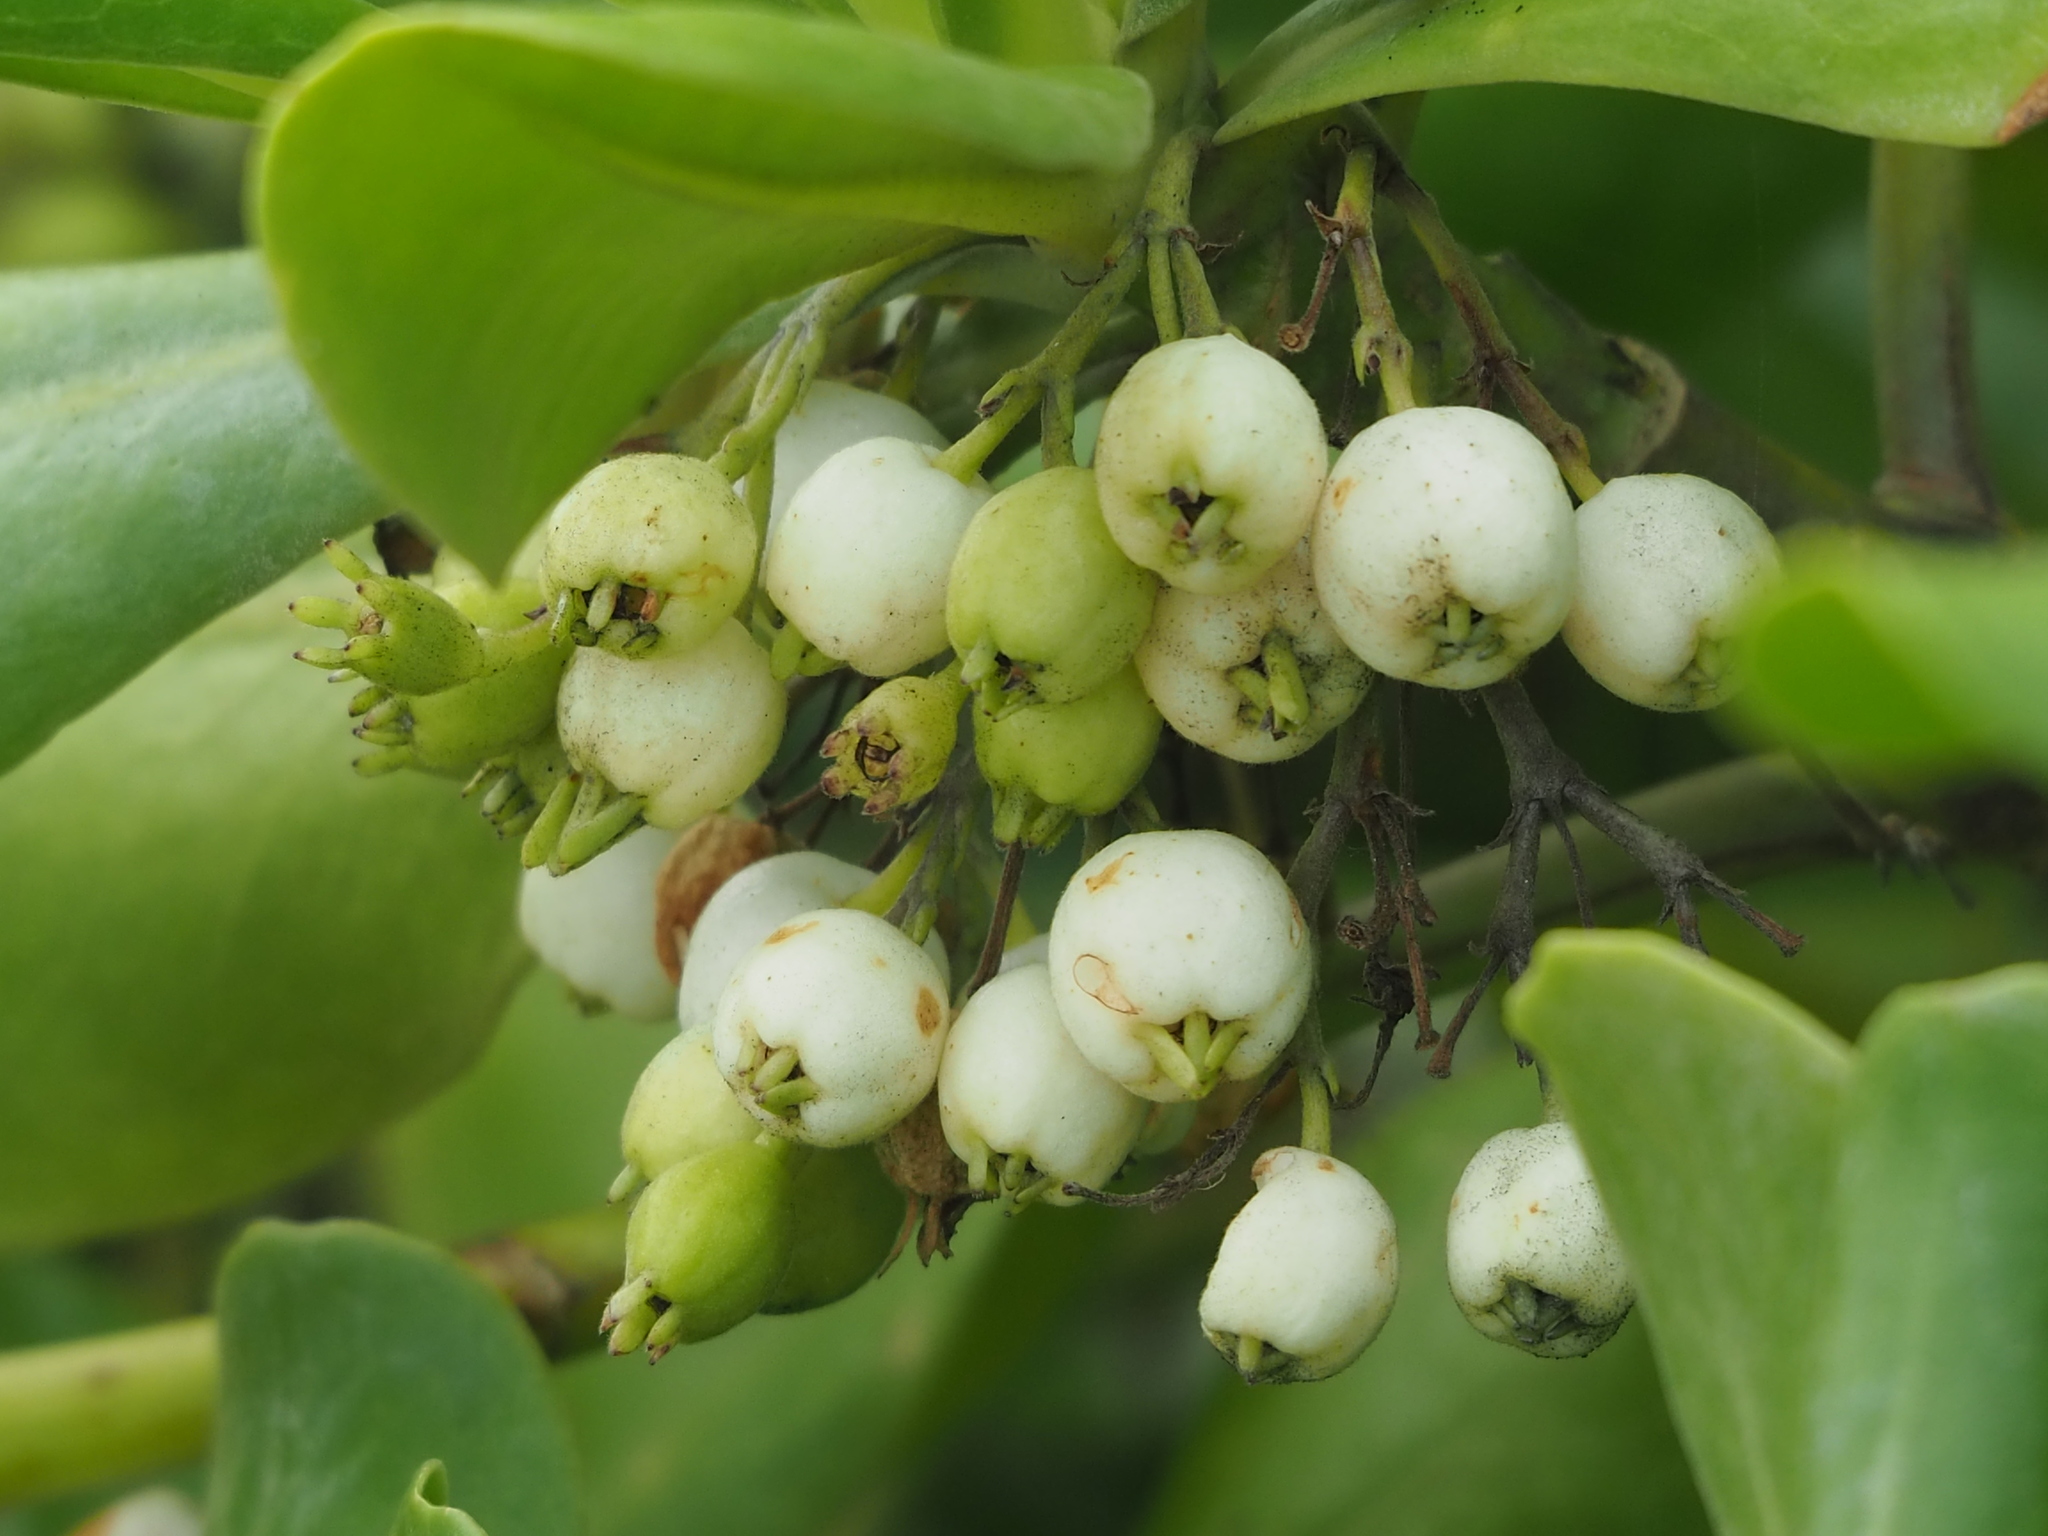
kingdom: Plantae
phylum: Tracheophyta
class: Magnoliopsida
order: Asterales
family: Goodeniaceae
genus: Scaevola
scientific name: Scaevola taccada
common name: Sea lettucetree
